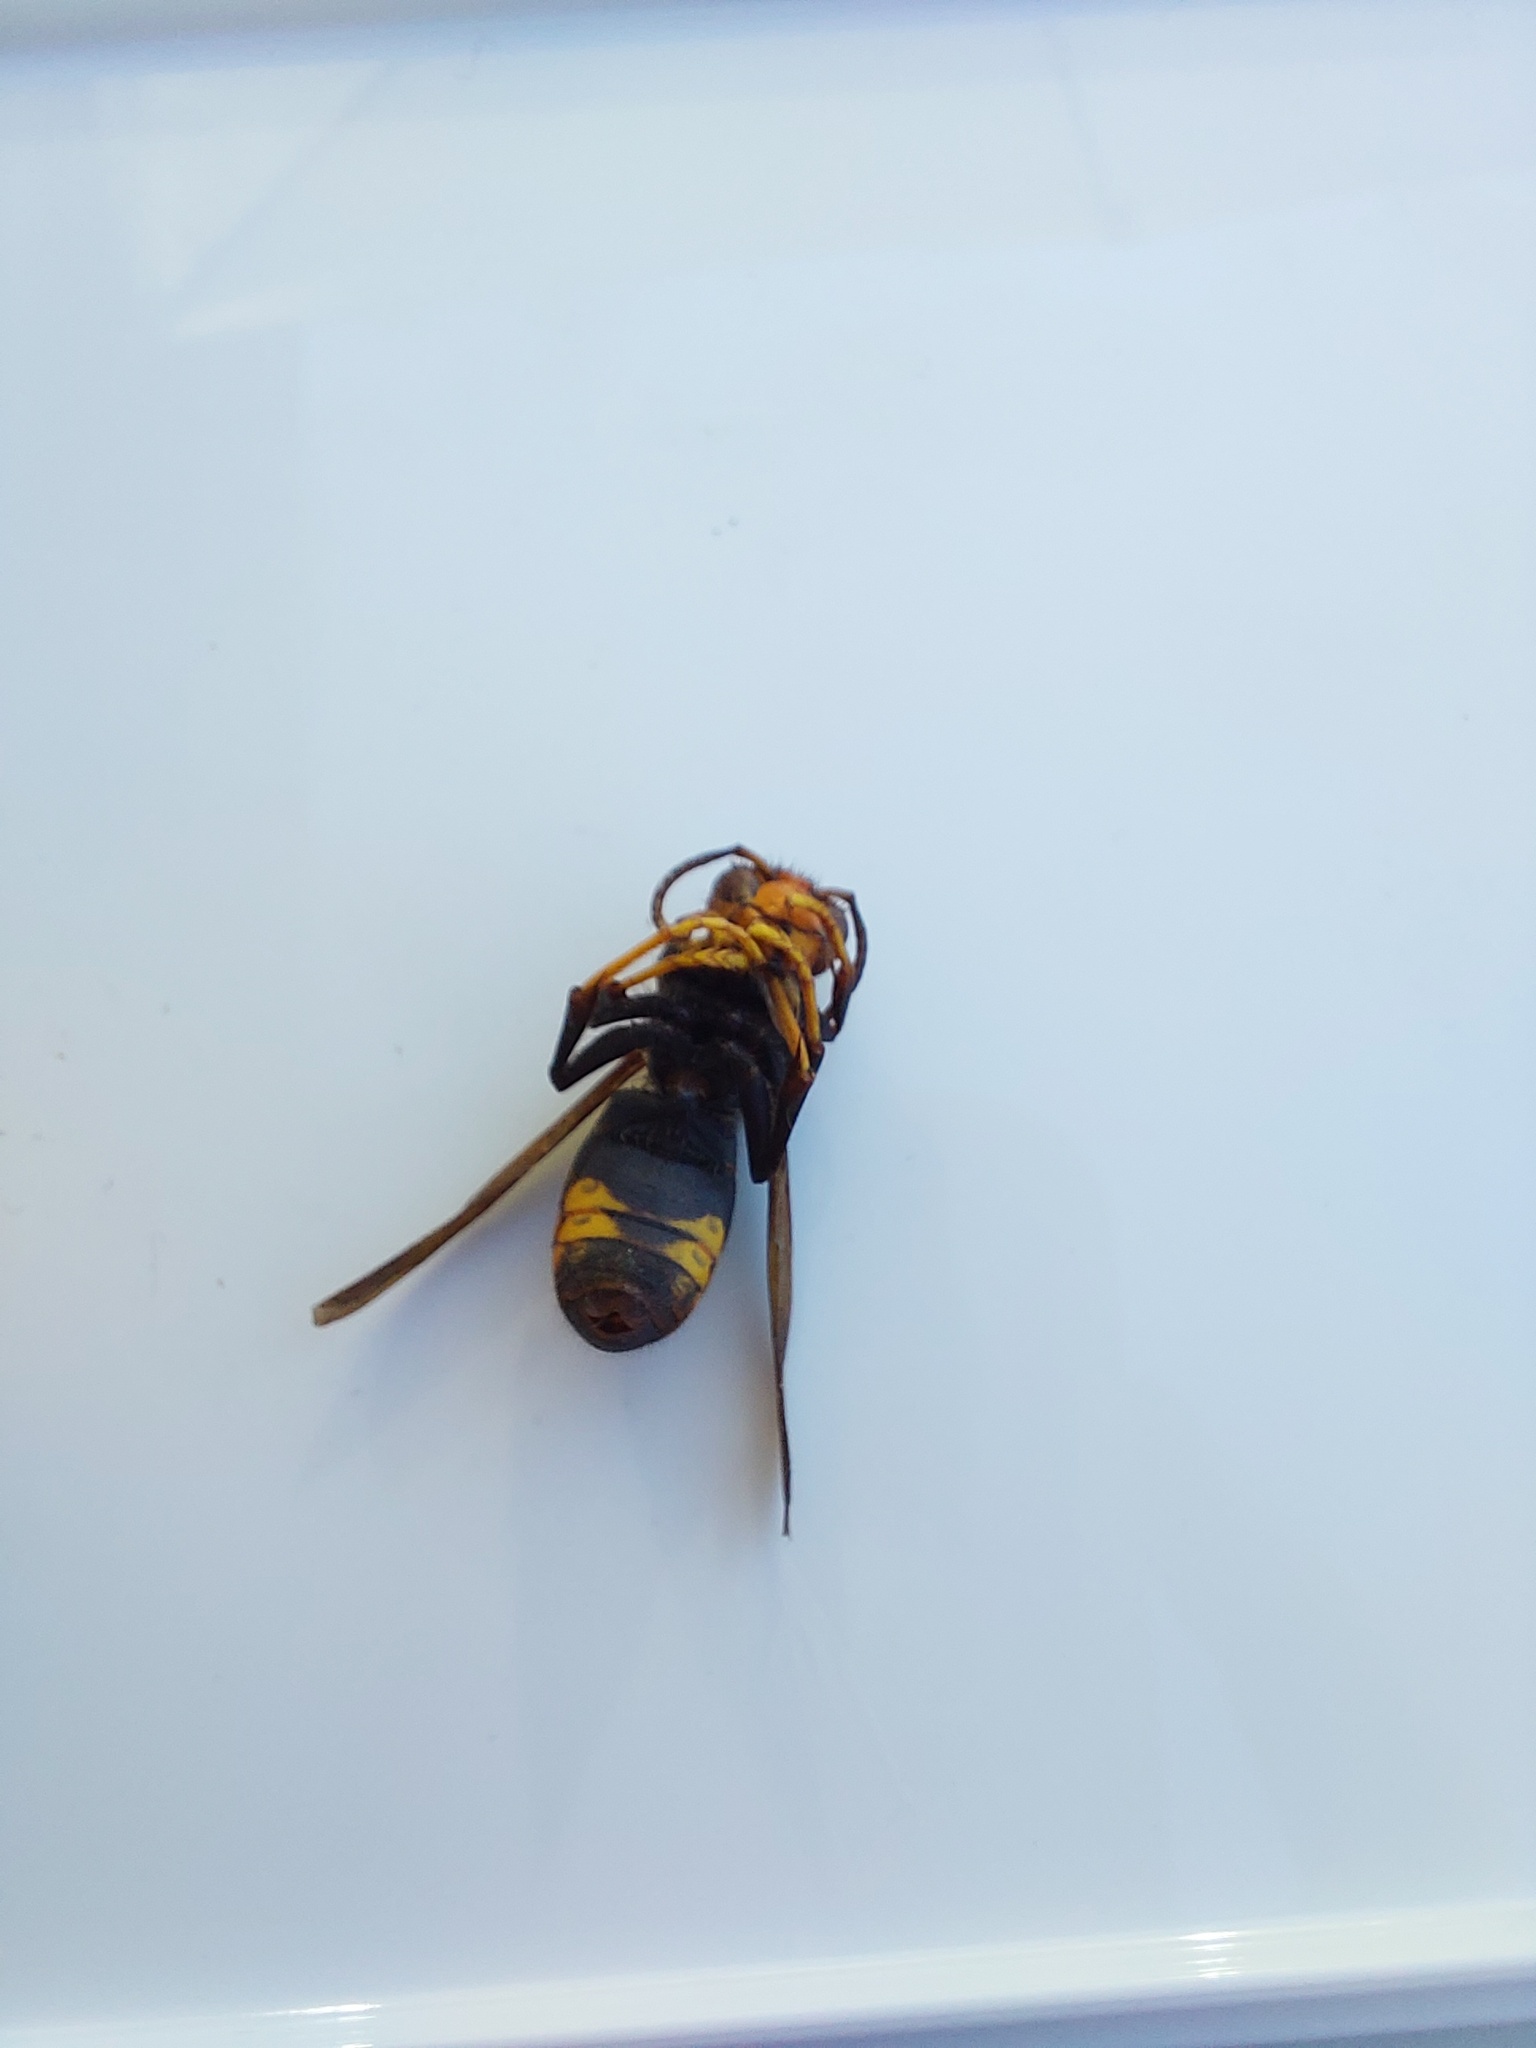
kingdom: Animalia
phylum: Arthropoda
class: Insecta
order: Hymenoptera
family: Vespidae
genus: Vespa
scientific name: Vespa velutina
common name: Asian hornet
